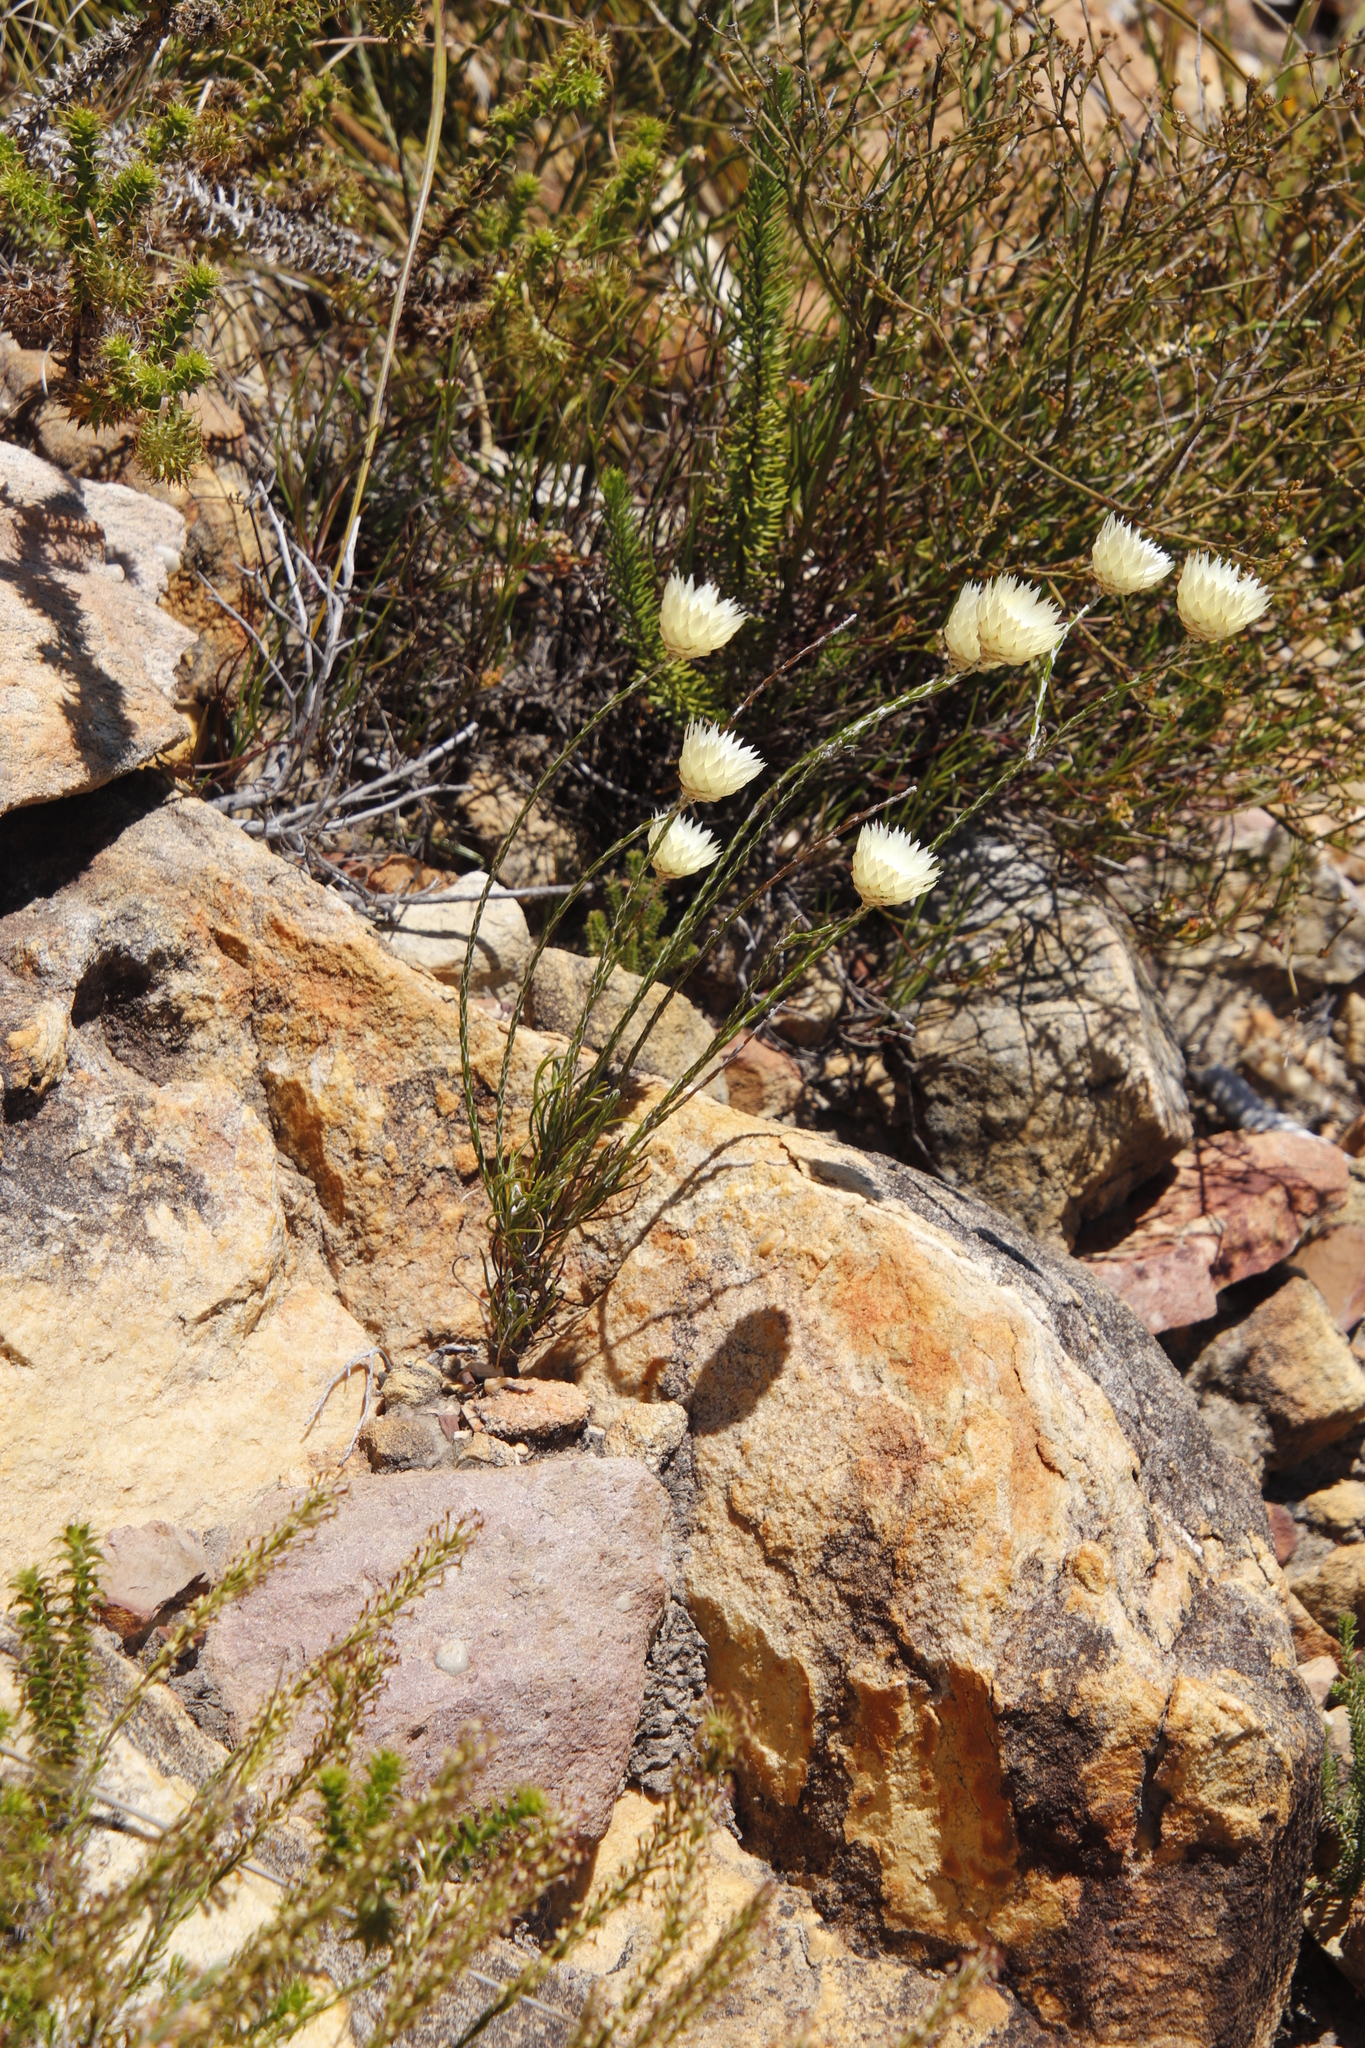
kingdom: Plantae
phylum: Tracheophyta
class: Magnoliopsida
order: Asterales
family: Asteraceae
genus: Edmondia
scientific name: Edmondia sesamoides
